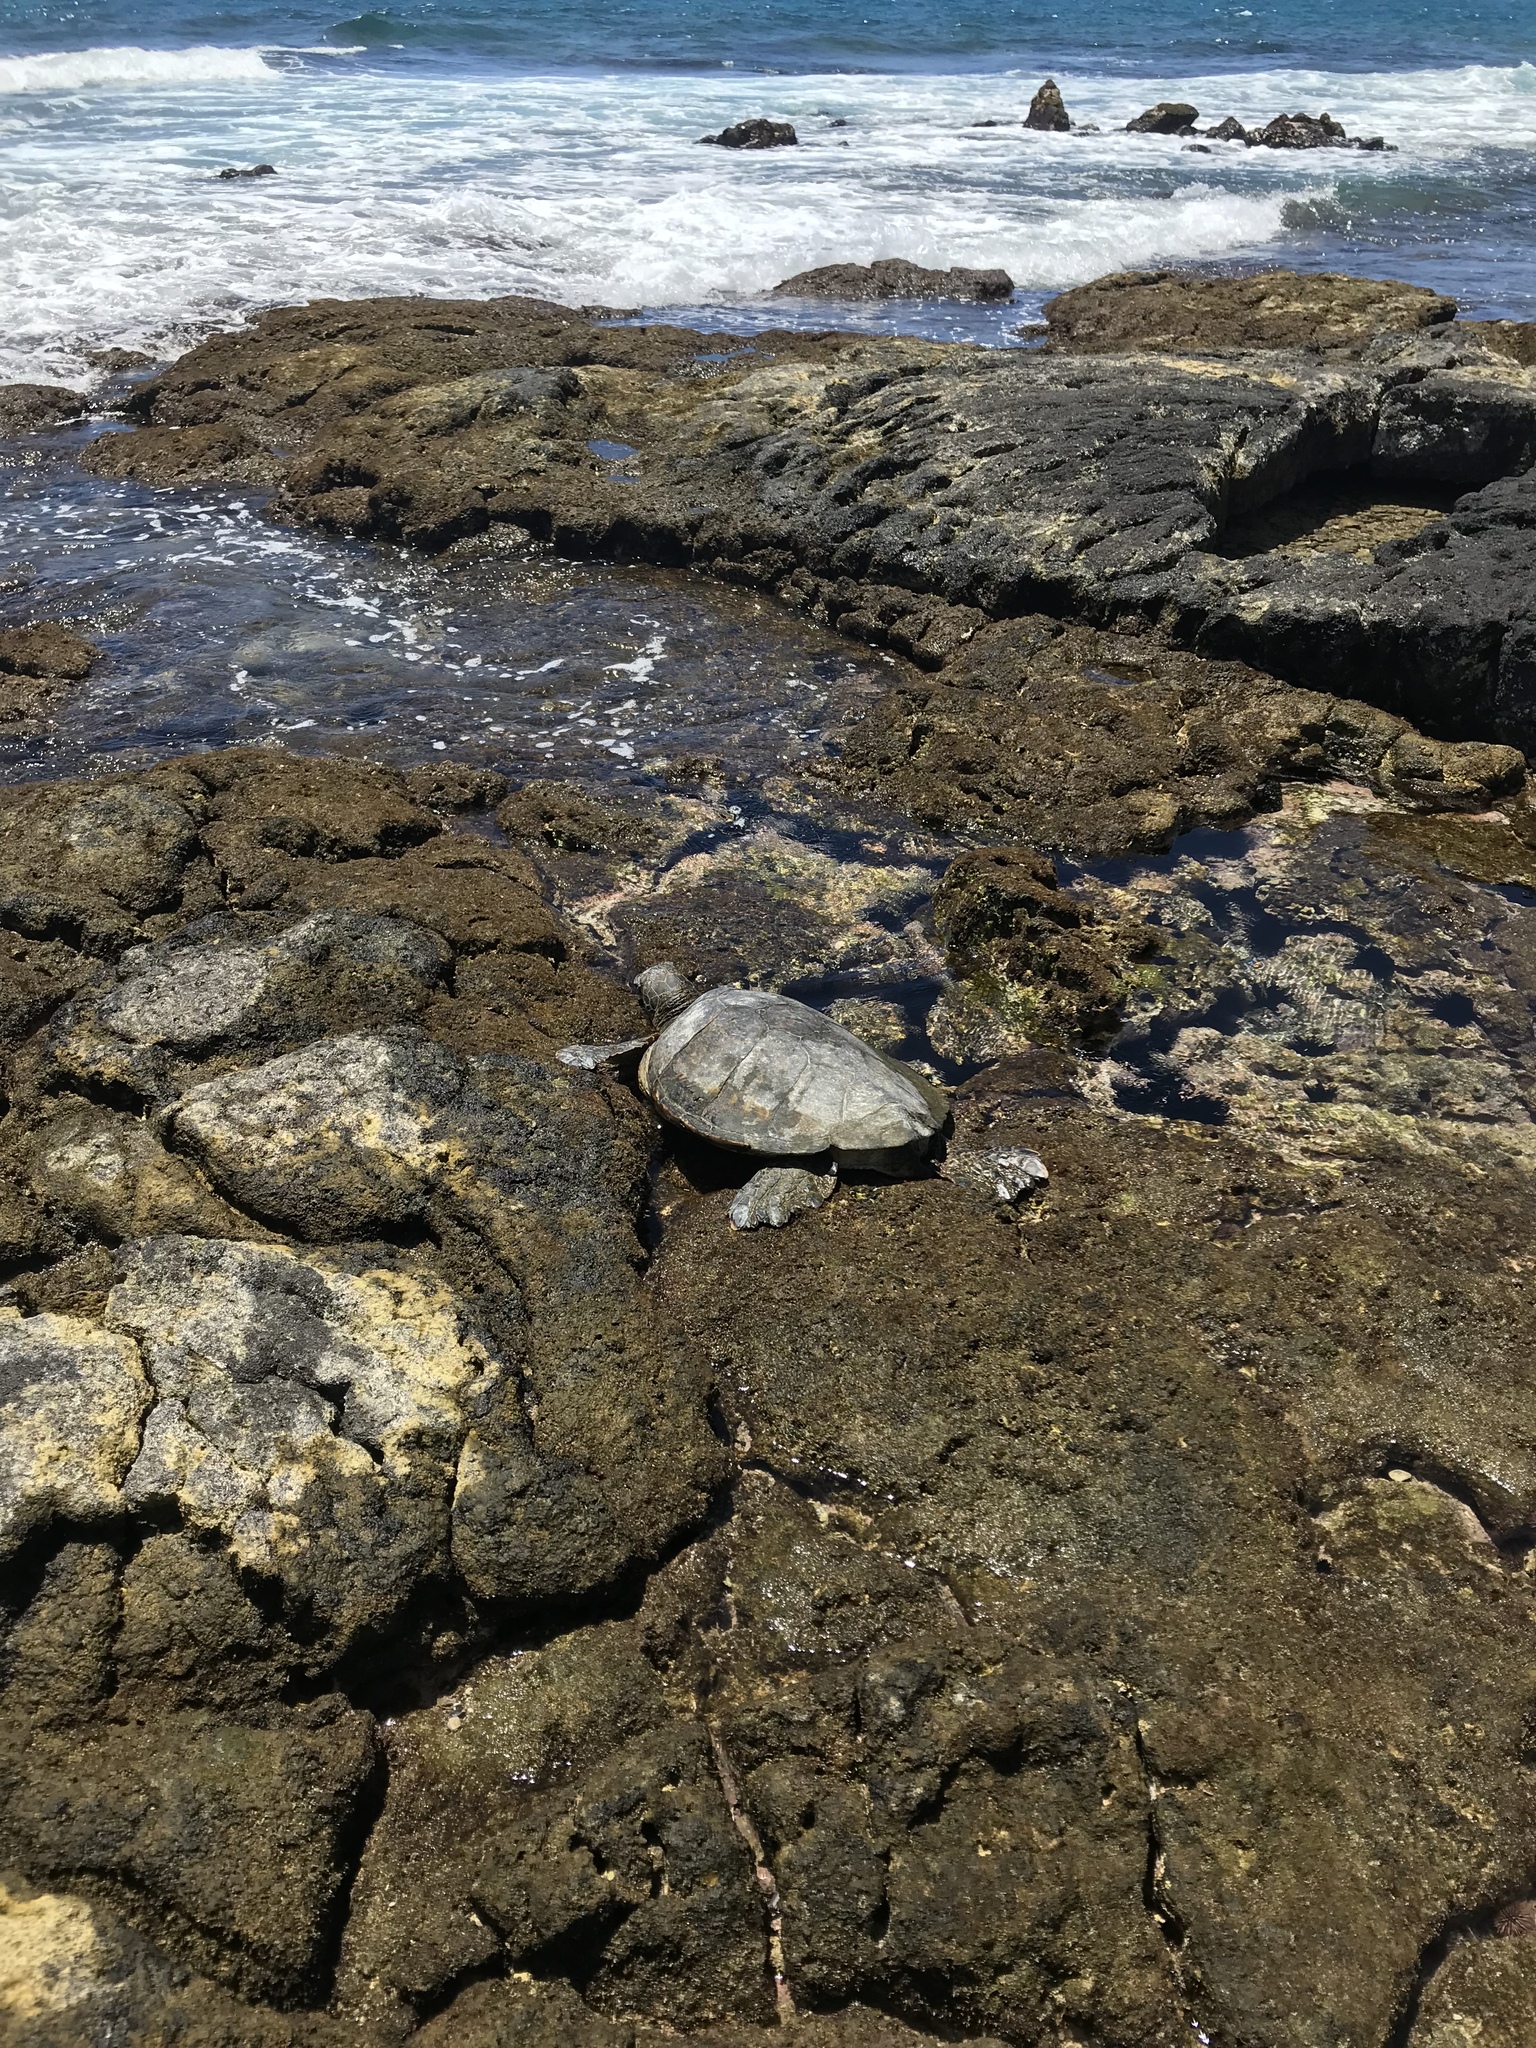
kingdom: Animalia
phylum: Chordata
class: Testudines
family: Cheloniidae
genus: Chelonia
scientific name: Chelonia mydas
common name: Green turtle
